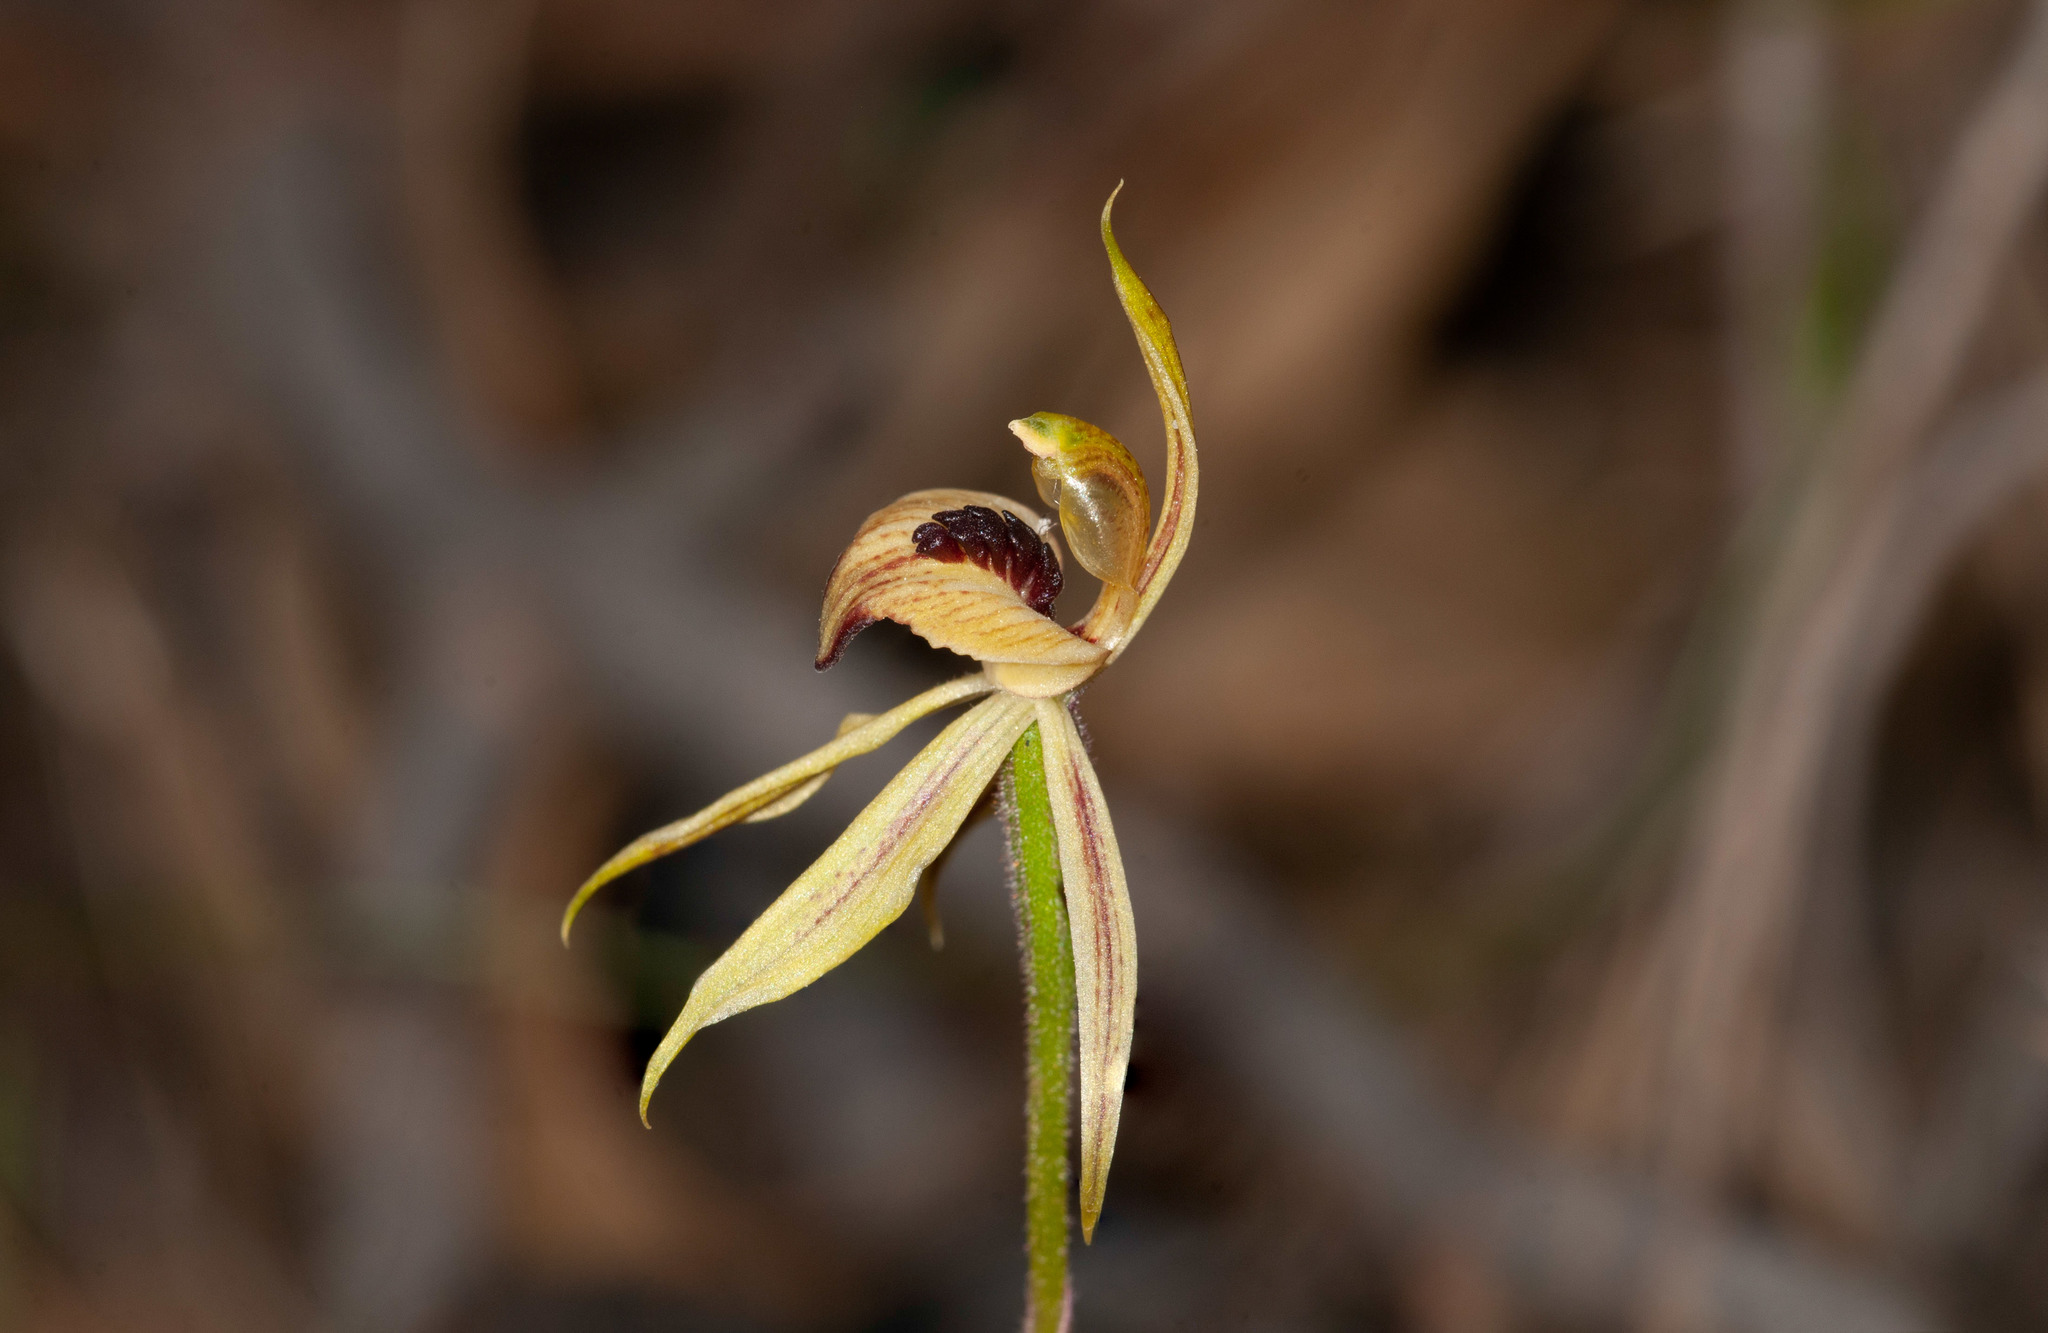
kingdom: Plantae
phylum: Tracheophyta
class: Liliopsida
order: Asparagales
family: Orchidaceae
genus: Caladenia
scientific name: Caladenia cardiochila
